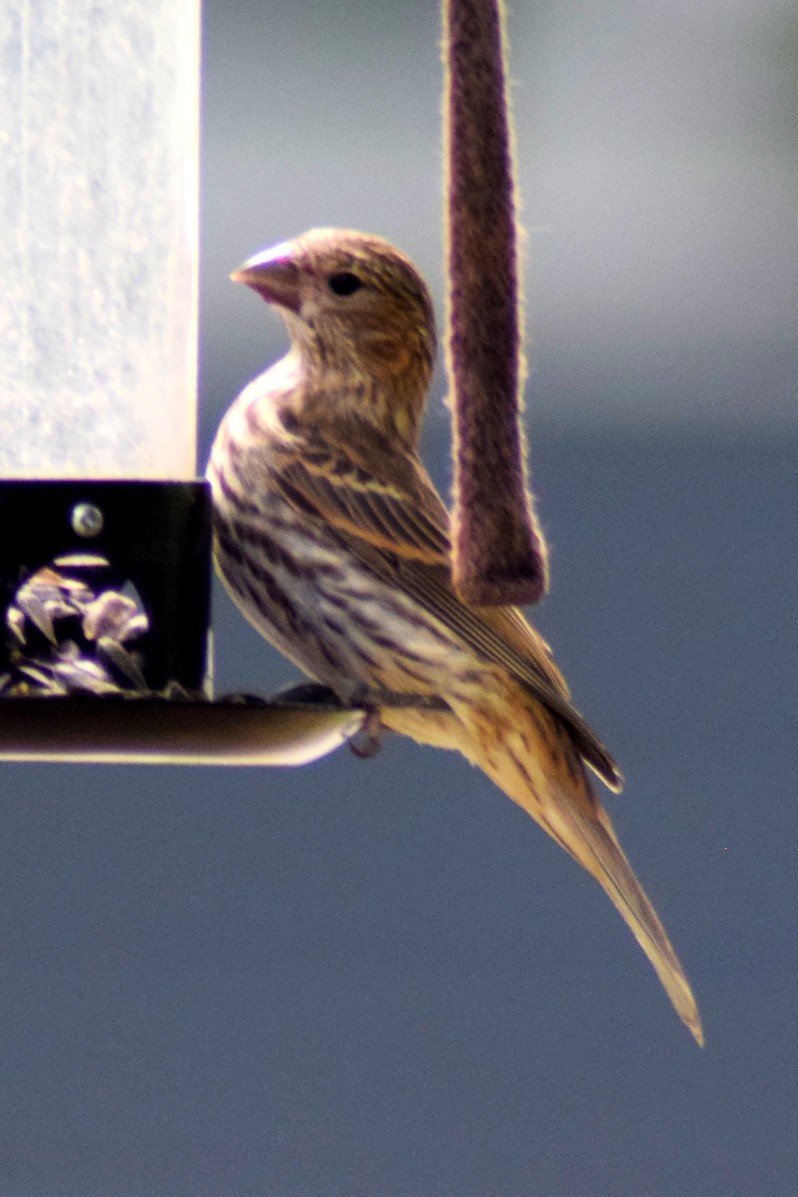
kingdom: Animalia
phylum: Chordata
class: Aves
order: Passeriformes
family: Fringillidae
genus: Haemorhous
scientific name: Haemorhous mexicanus
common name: House finch
